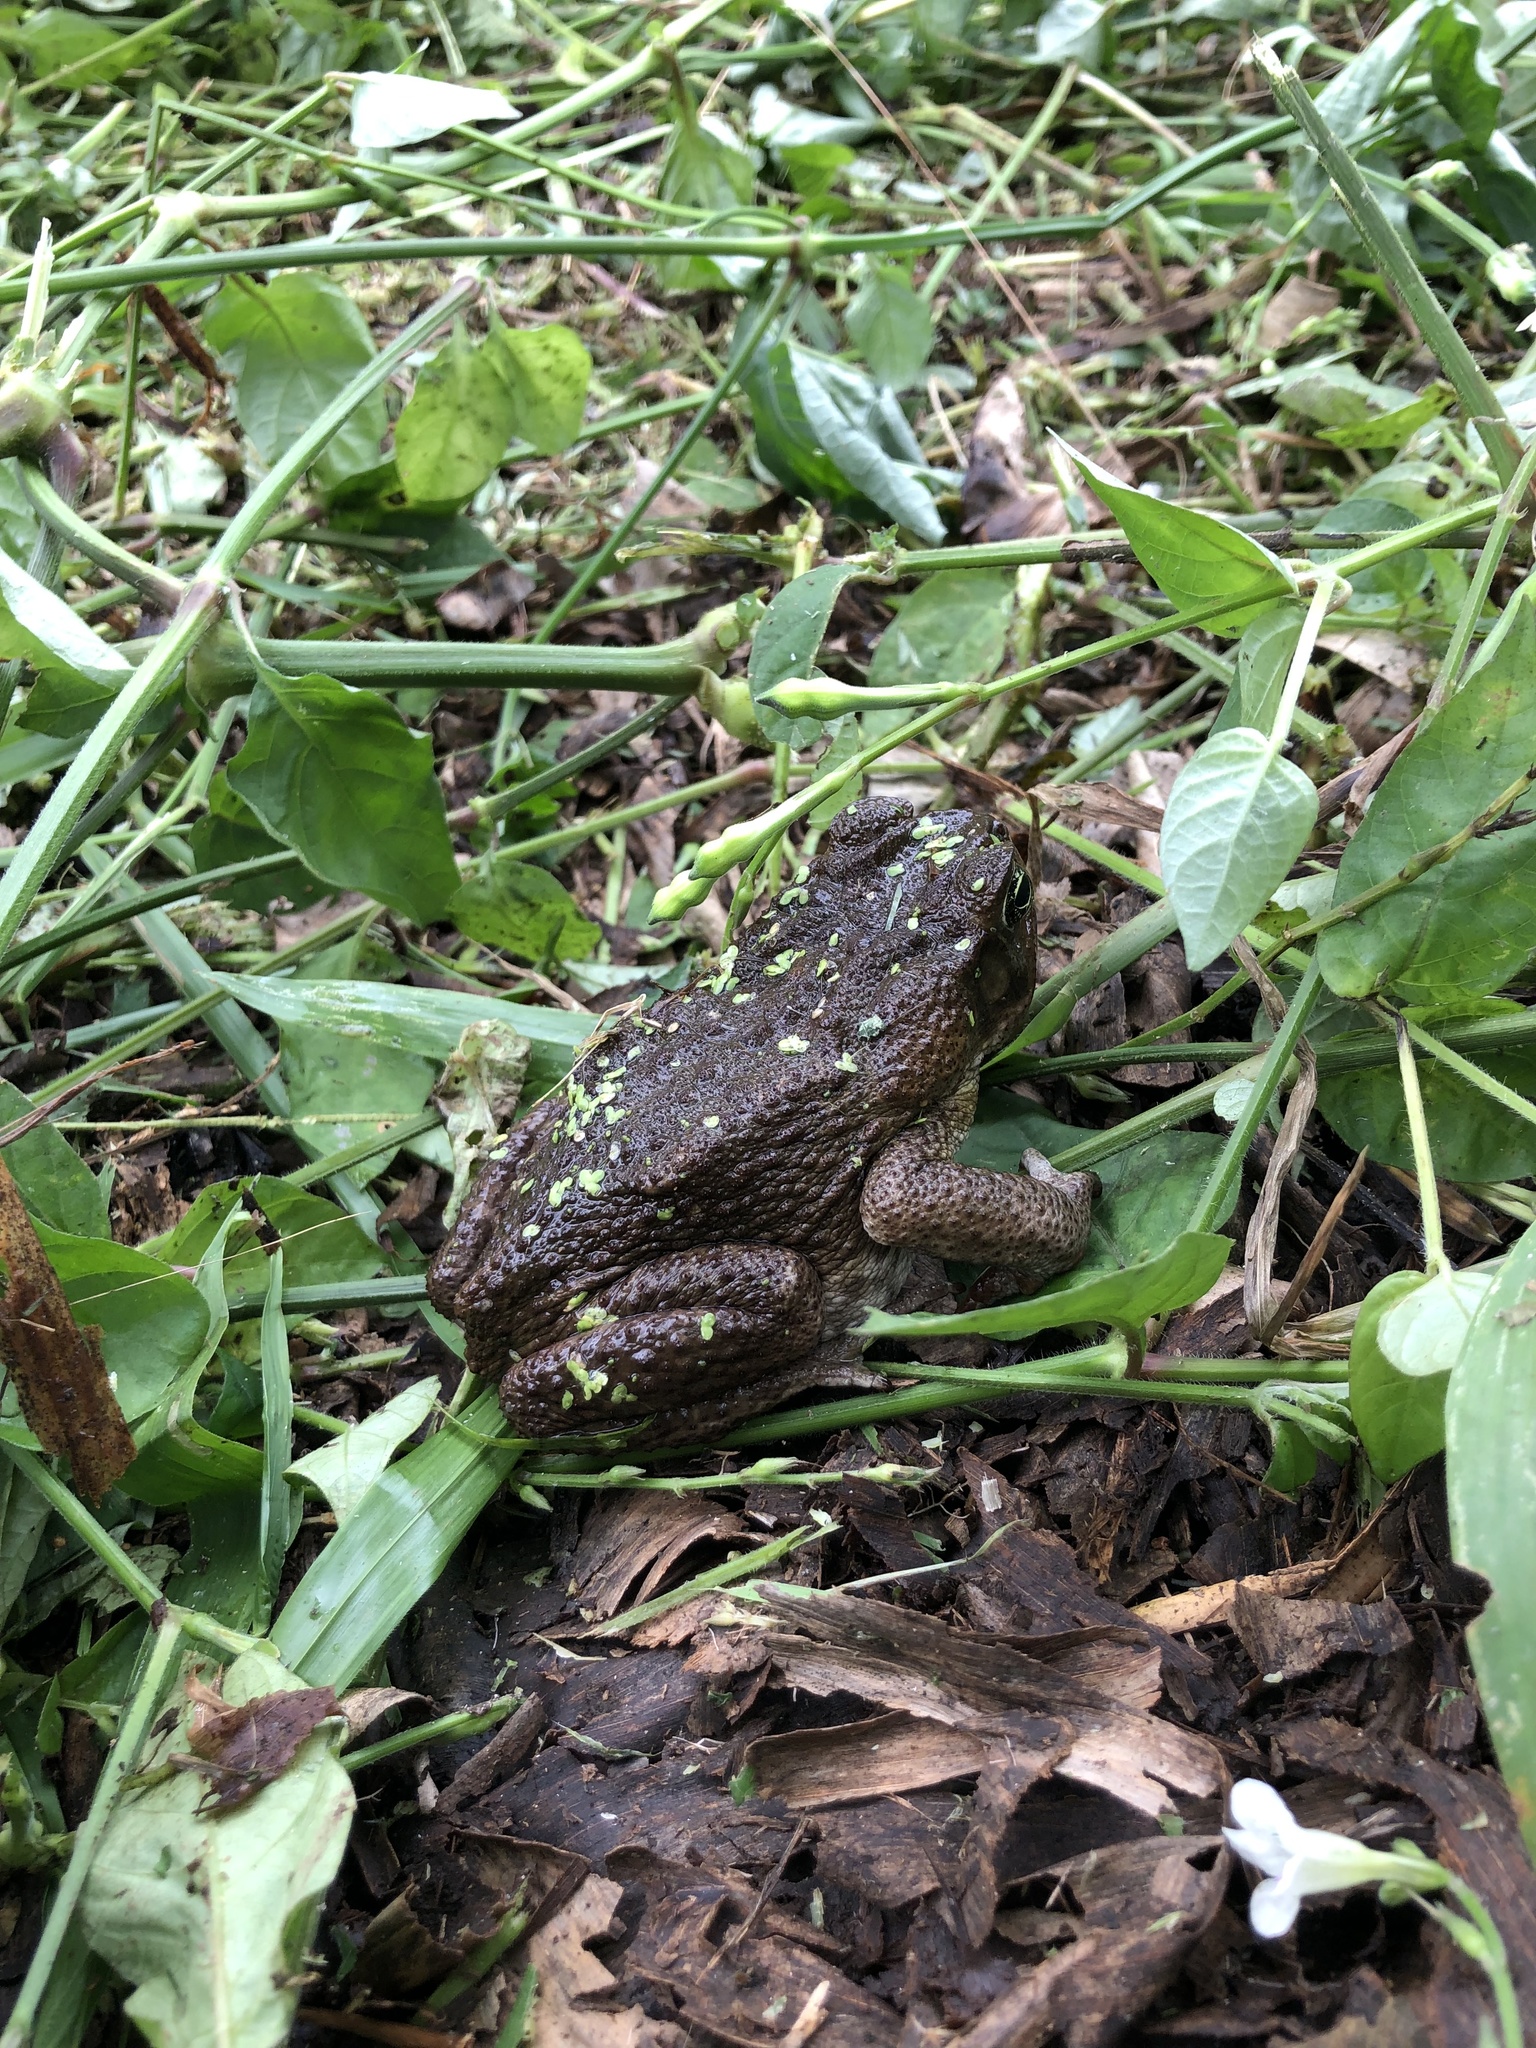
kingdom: Animalia
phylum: Chordata
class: Amphibia
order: Anura
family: Bufonidae
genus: Rhinella
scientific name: Rhinella
